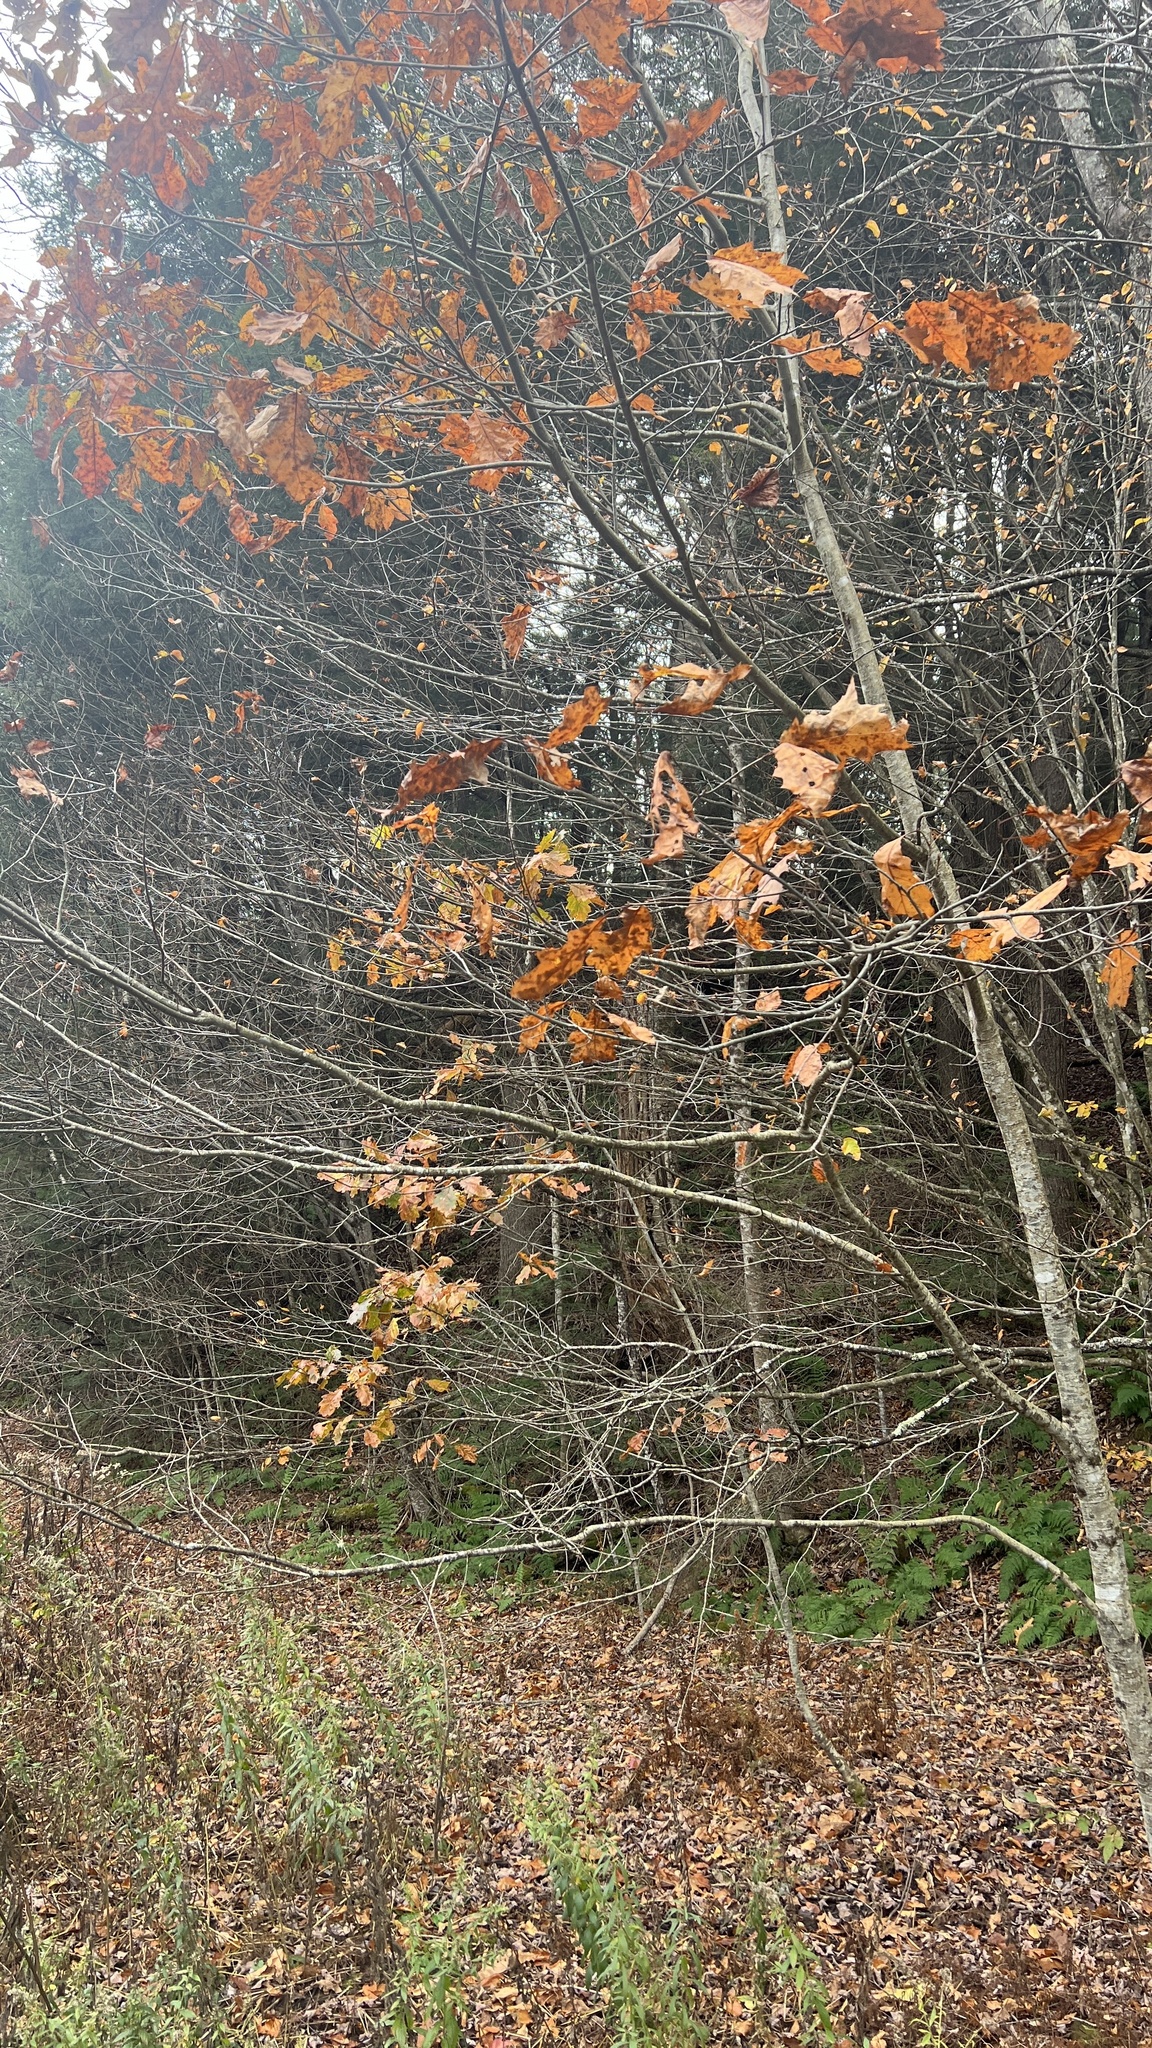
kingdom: Plantae
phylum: Tracheophyta
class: Magnoliopsida
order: Fagales
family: Fagaceae
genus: Quercus
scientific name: Quercus rubra
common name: Red oak
